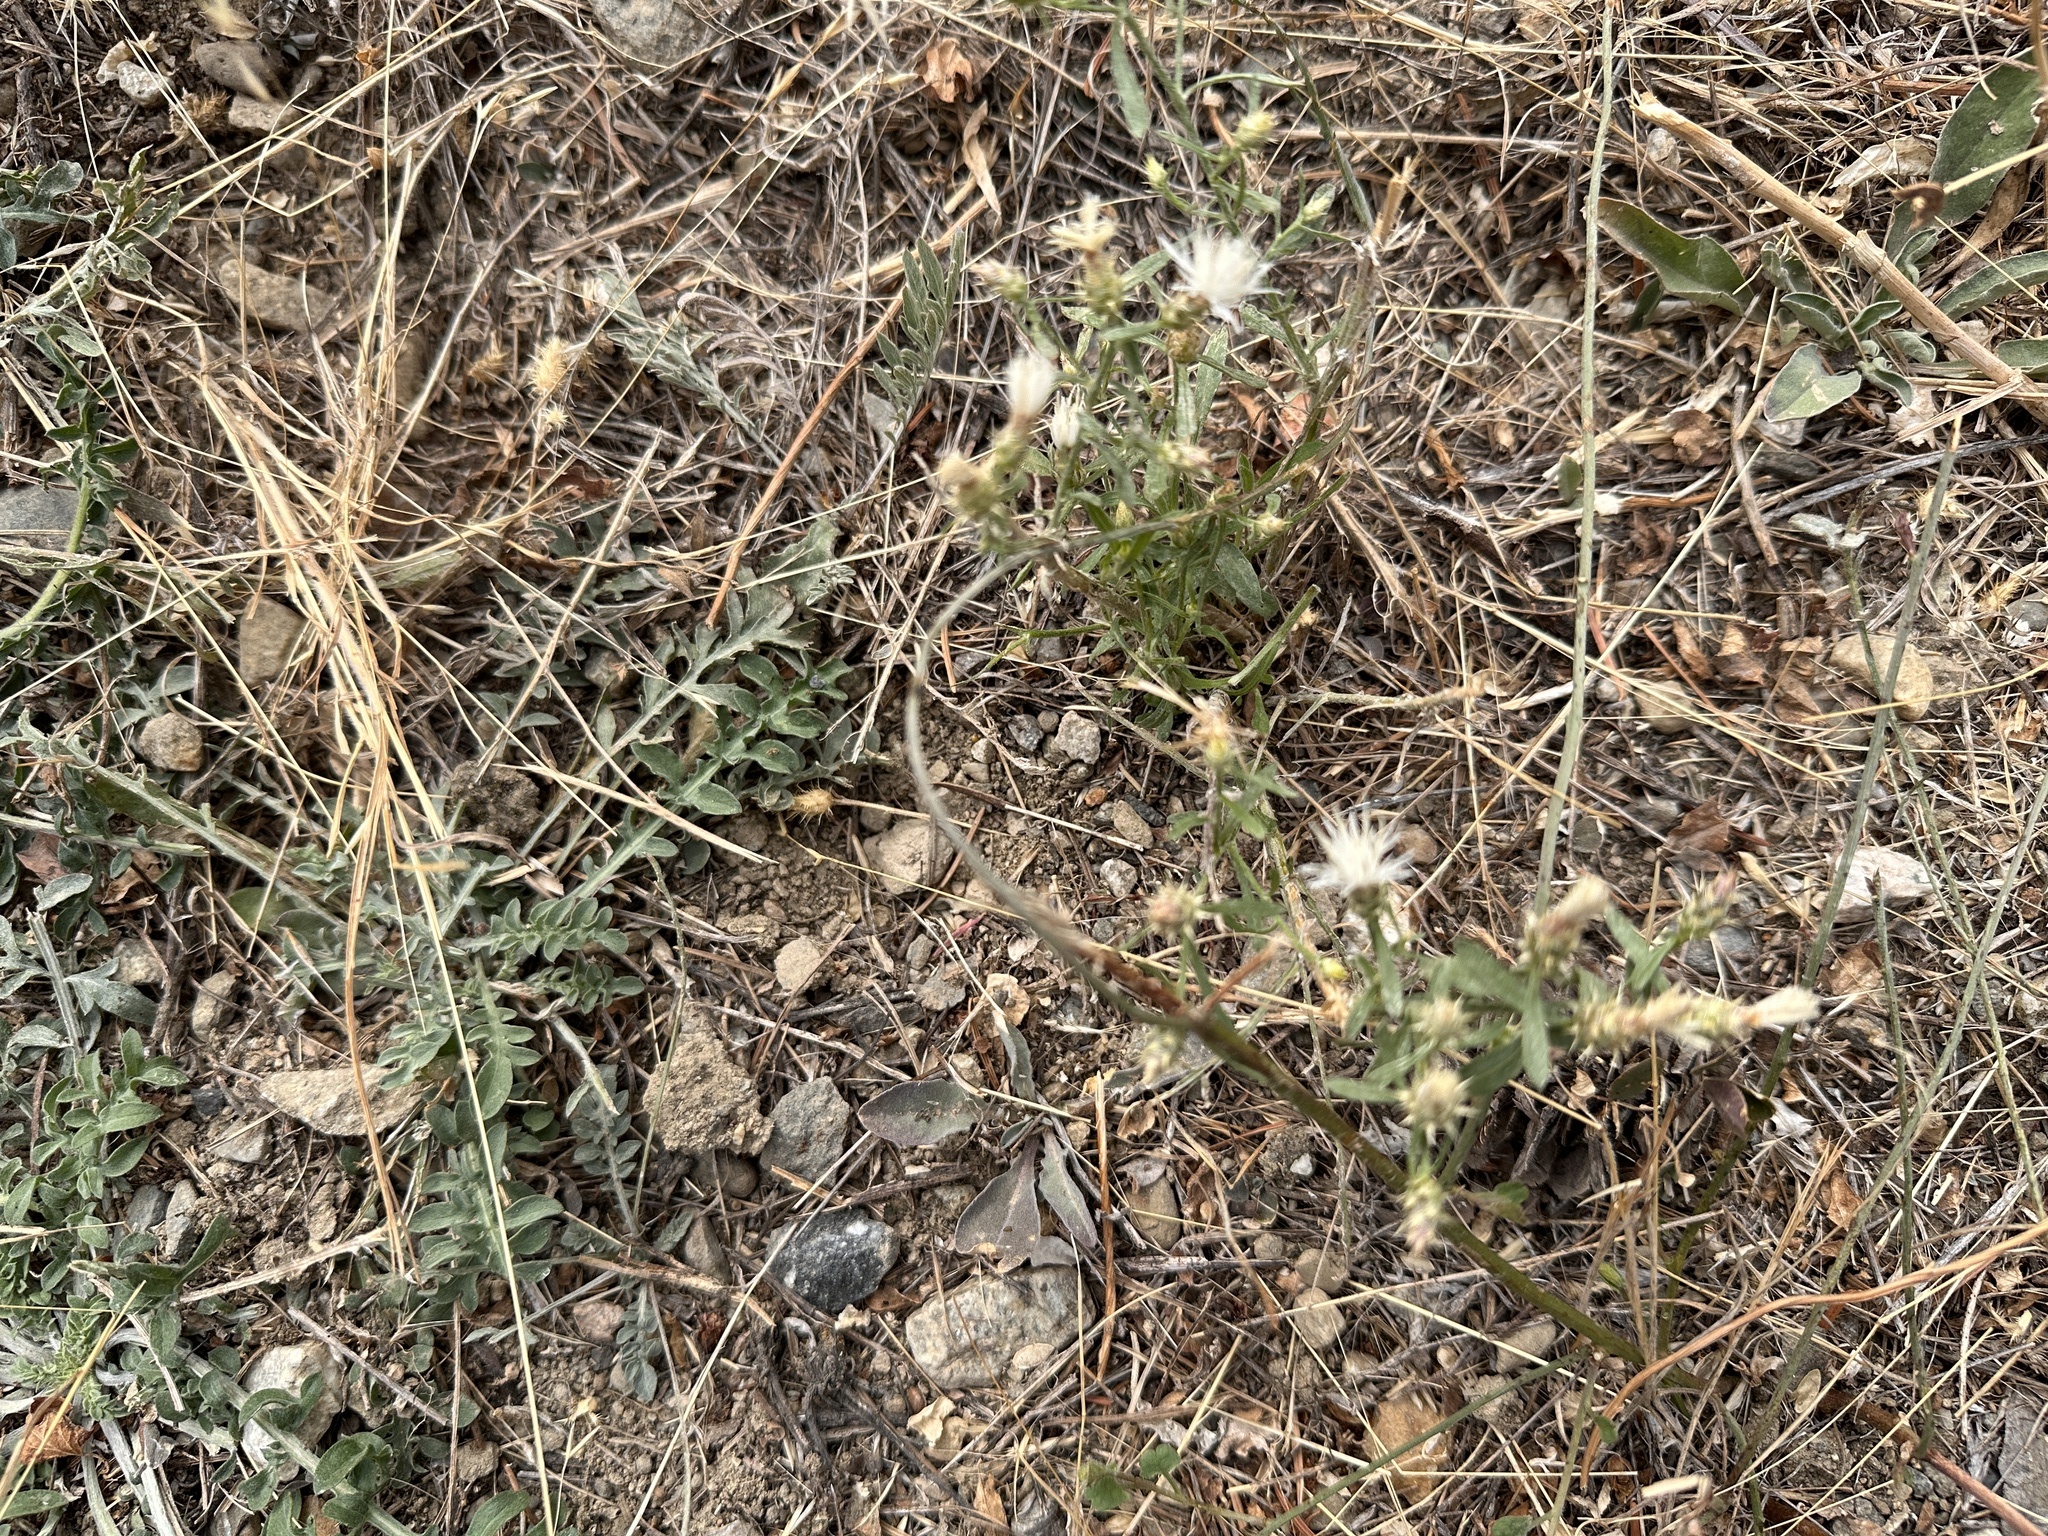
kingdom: Plantae
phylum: Tracheophyta
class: Magnoliopsida
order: Asterales
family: Asteraceae
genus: Centaurea
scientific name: Centaurea diffusa
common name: Diffuse knapweed
